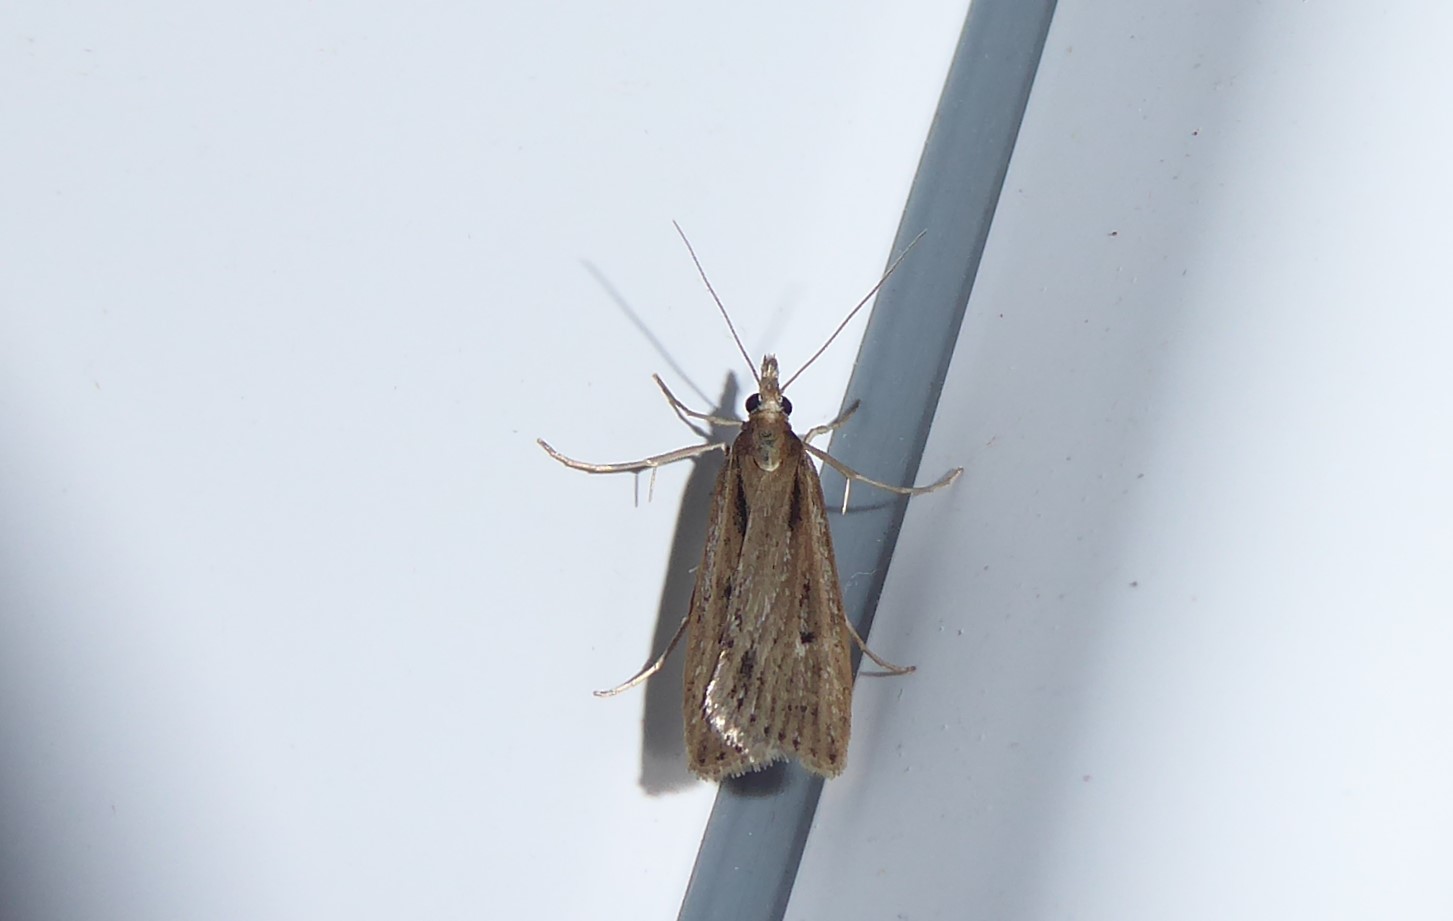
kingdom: Animalia
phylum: Arthropoda
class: Insecta
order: Lepidoptera
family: Crambidae
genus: Eudonia
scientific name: Eudonia sabulosella
